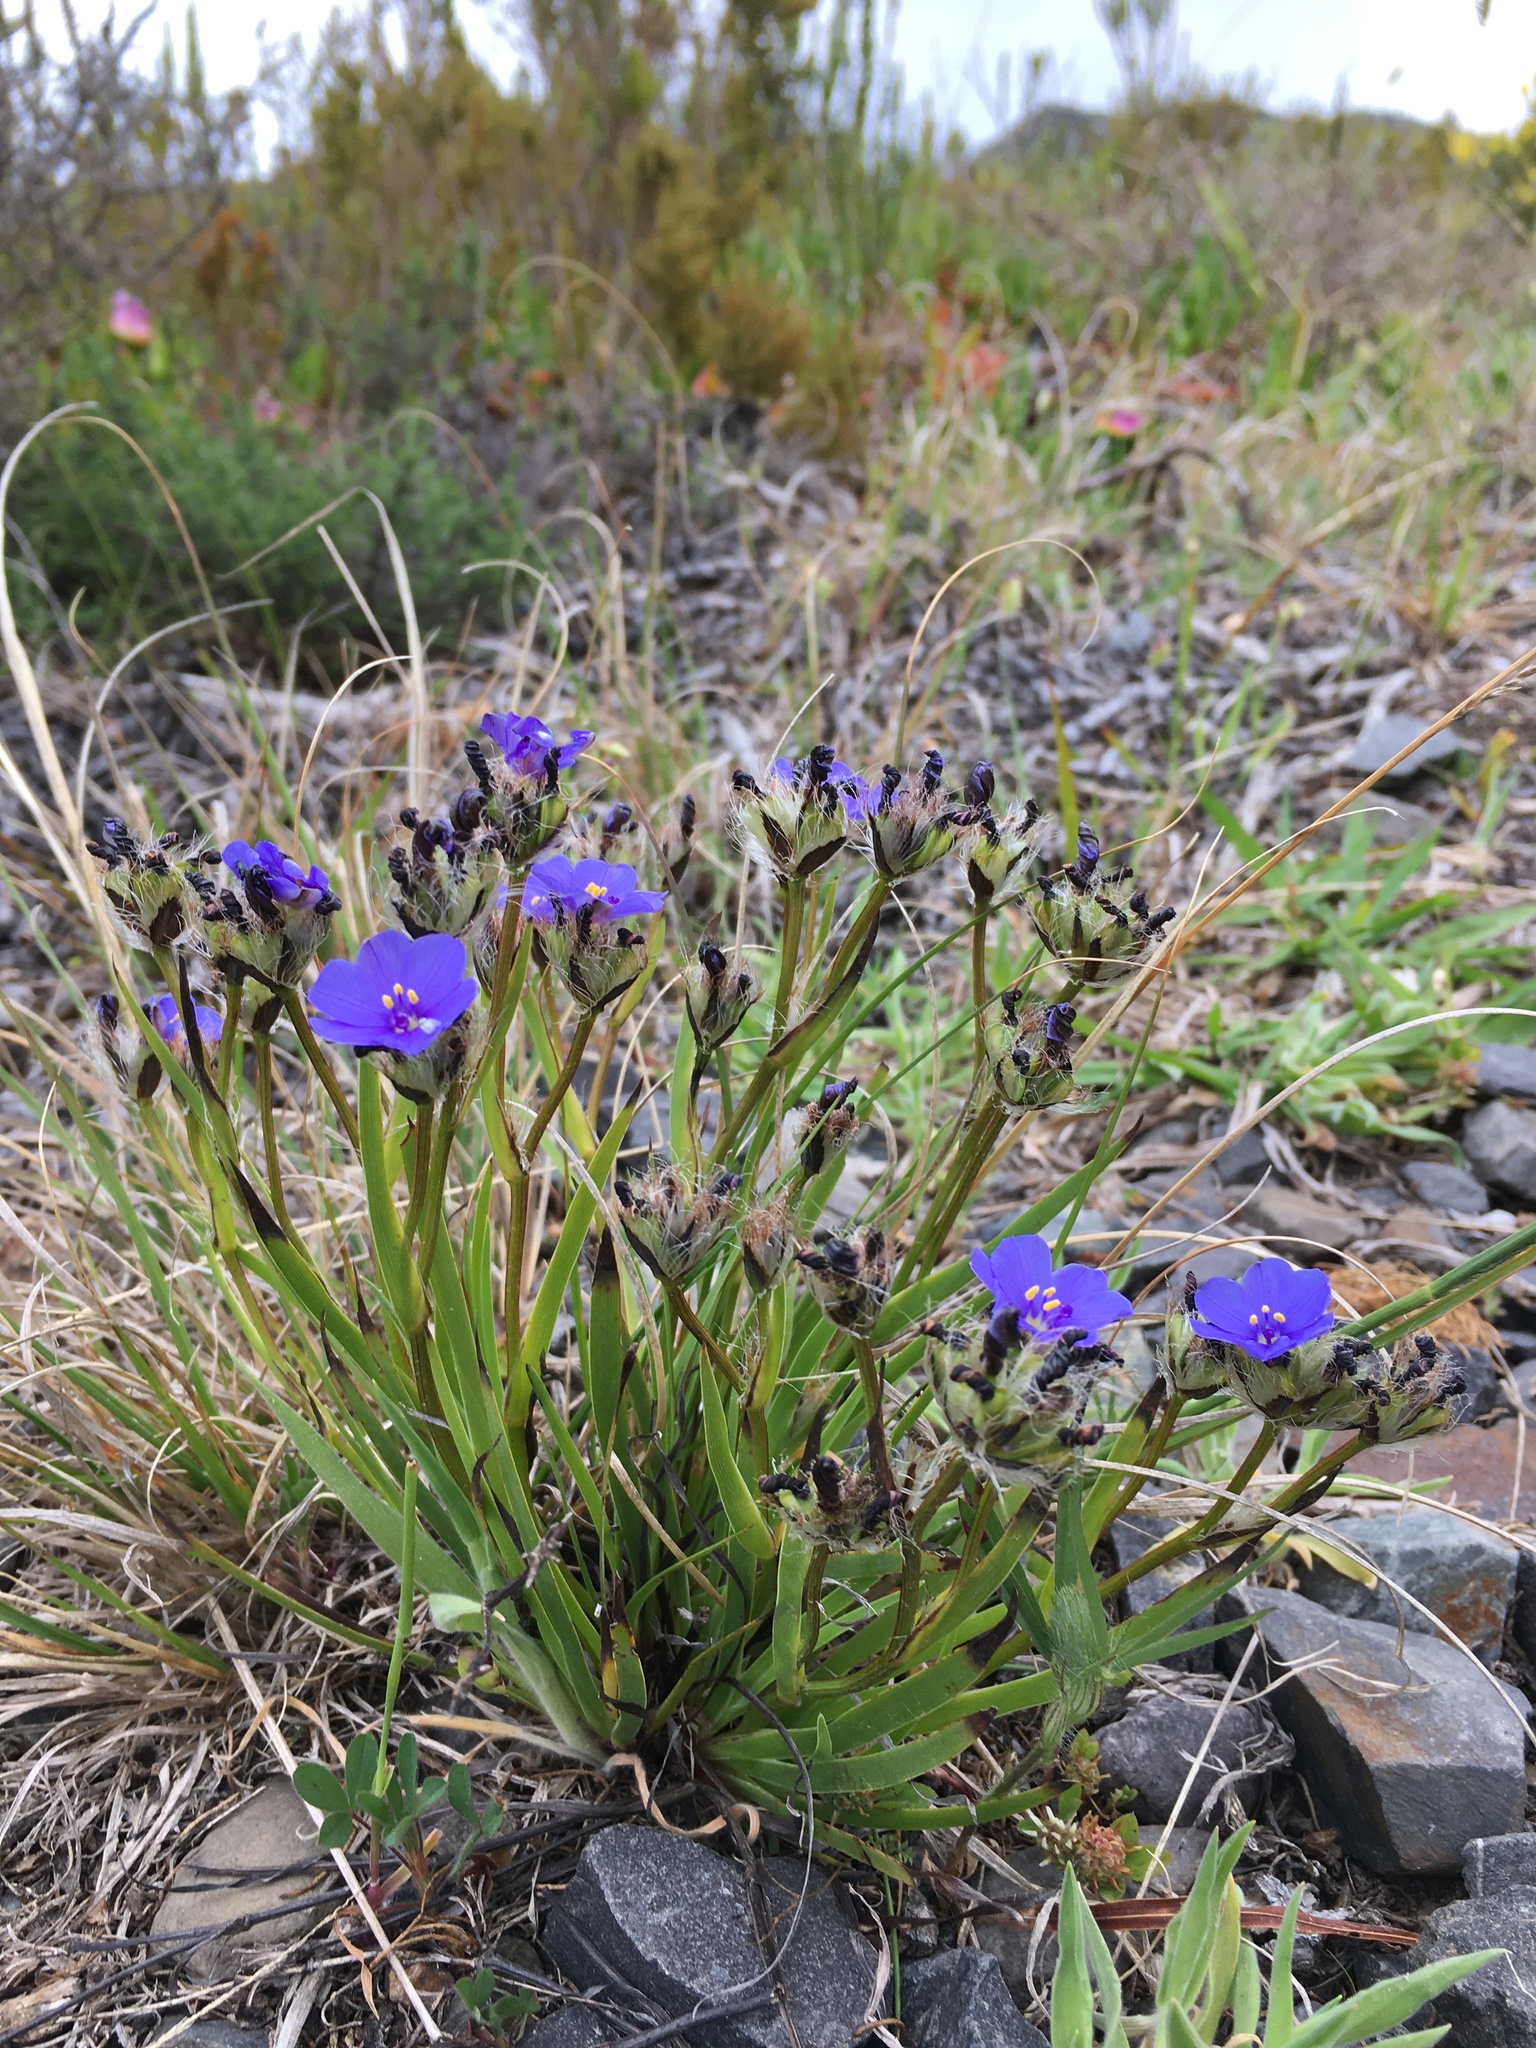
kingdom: Plantae
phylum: Tracheophyta
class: Liliopsida
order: Asparagales
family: Iridaceae
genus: Aristea
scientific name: Aristea glauca
